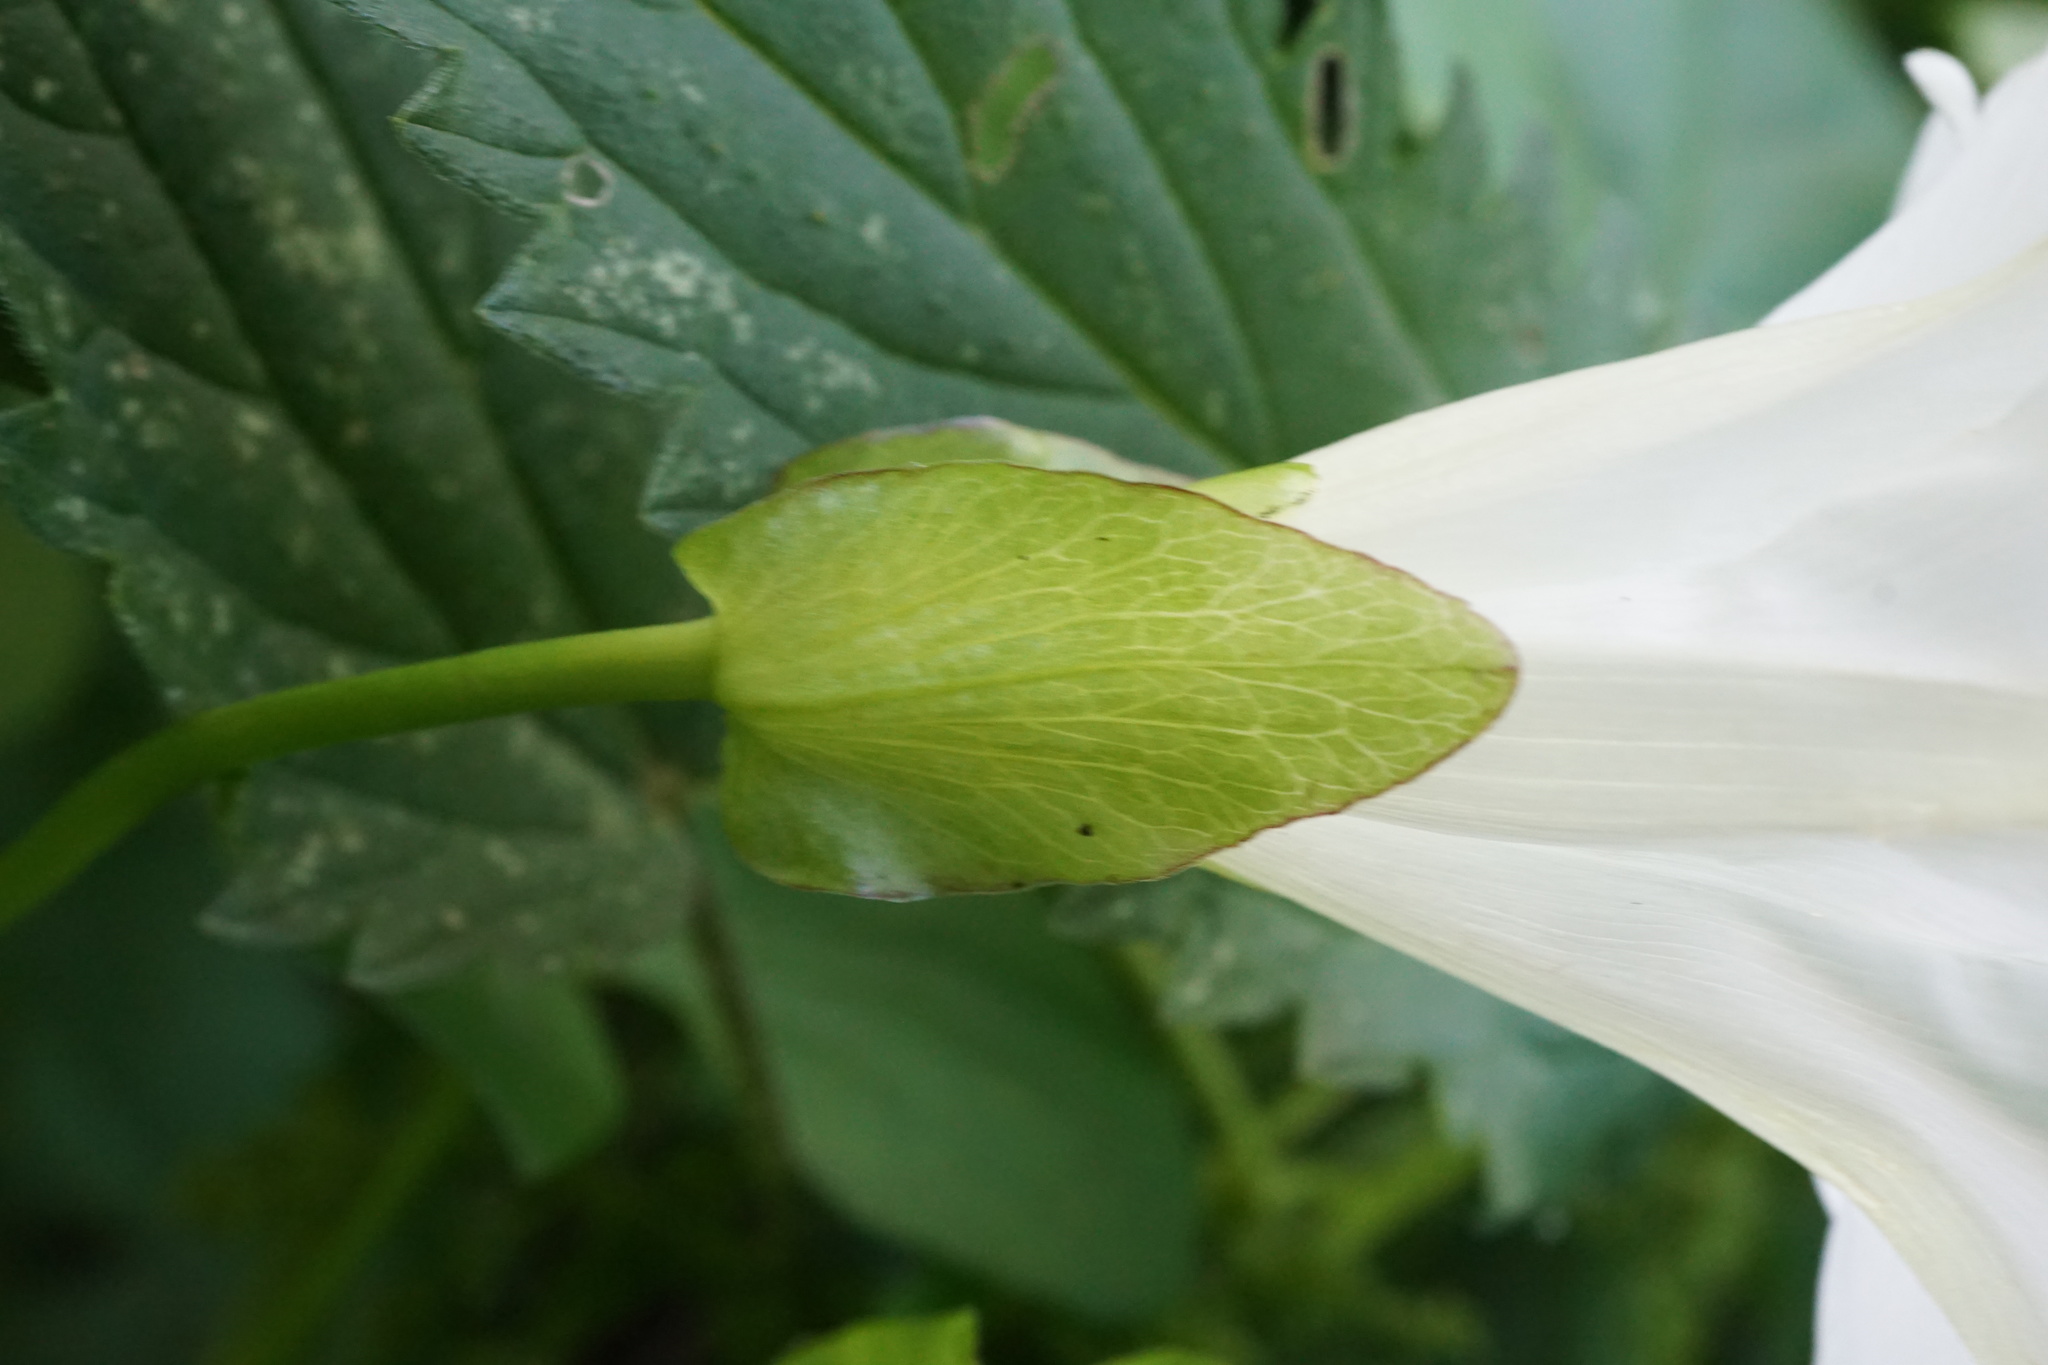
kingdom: Plantae
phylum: Tracheophyta
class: Magnoliopsida
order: Solanales
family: Convolvulaceae
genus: Calystegia
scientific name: Calystegia silvatica
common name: Large bindweed
